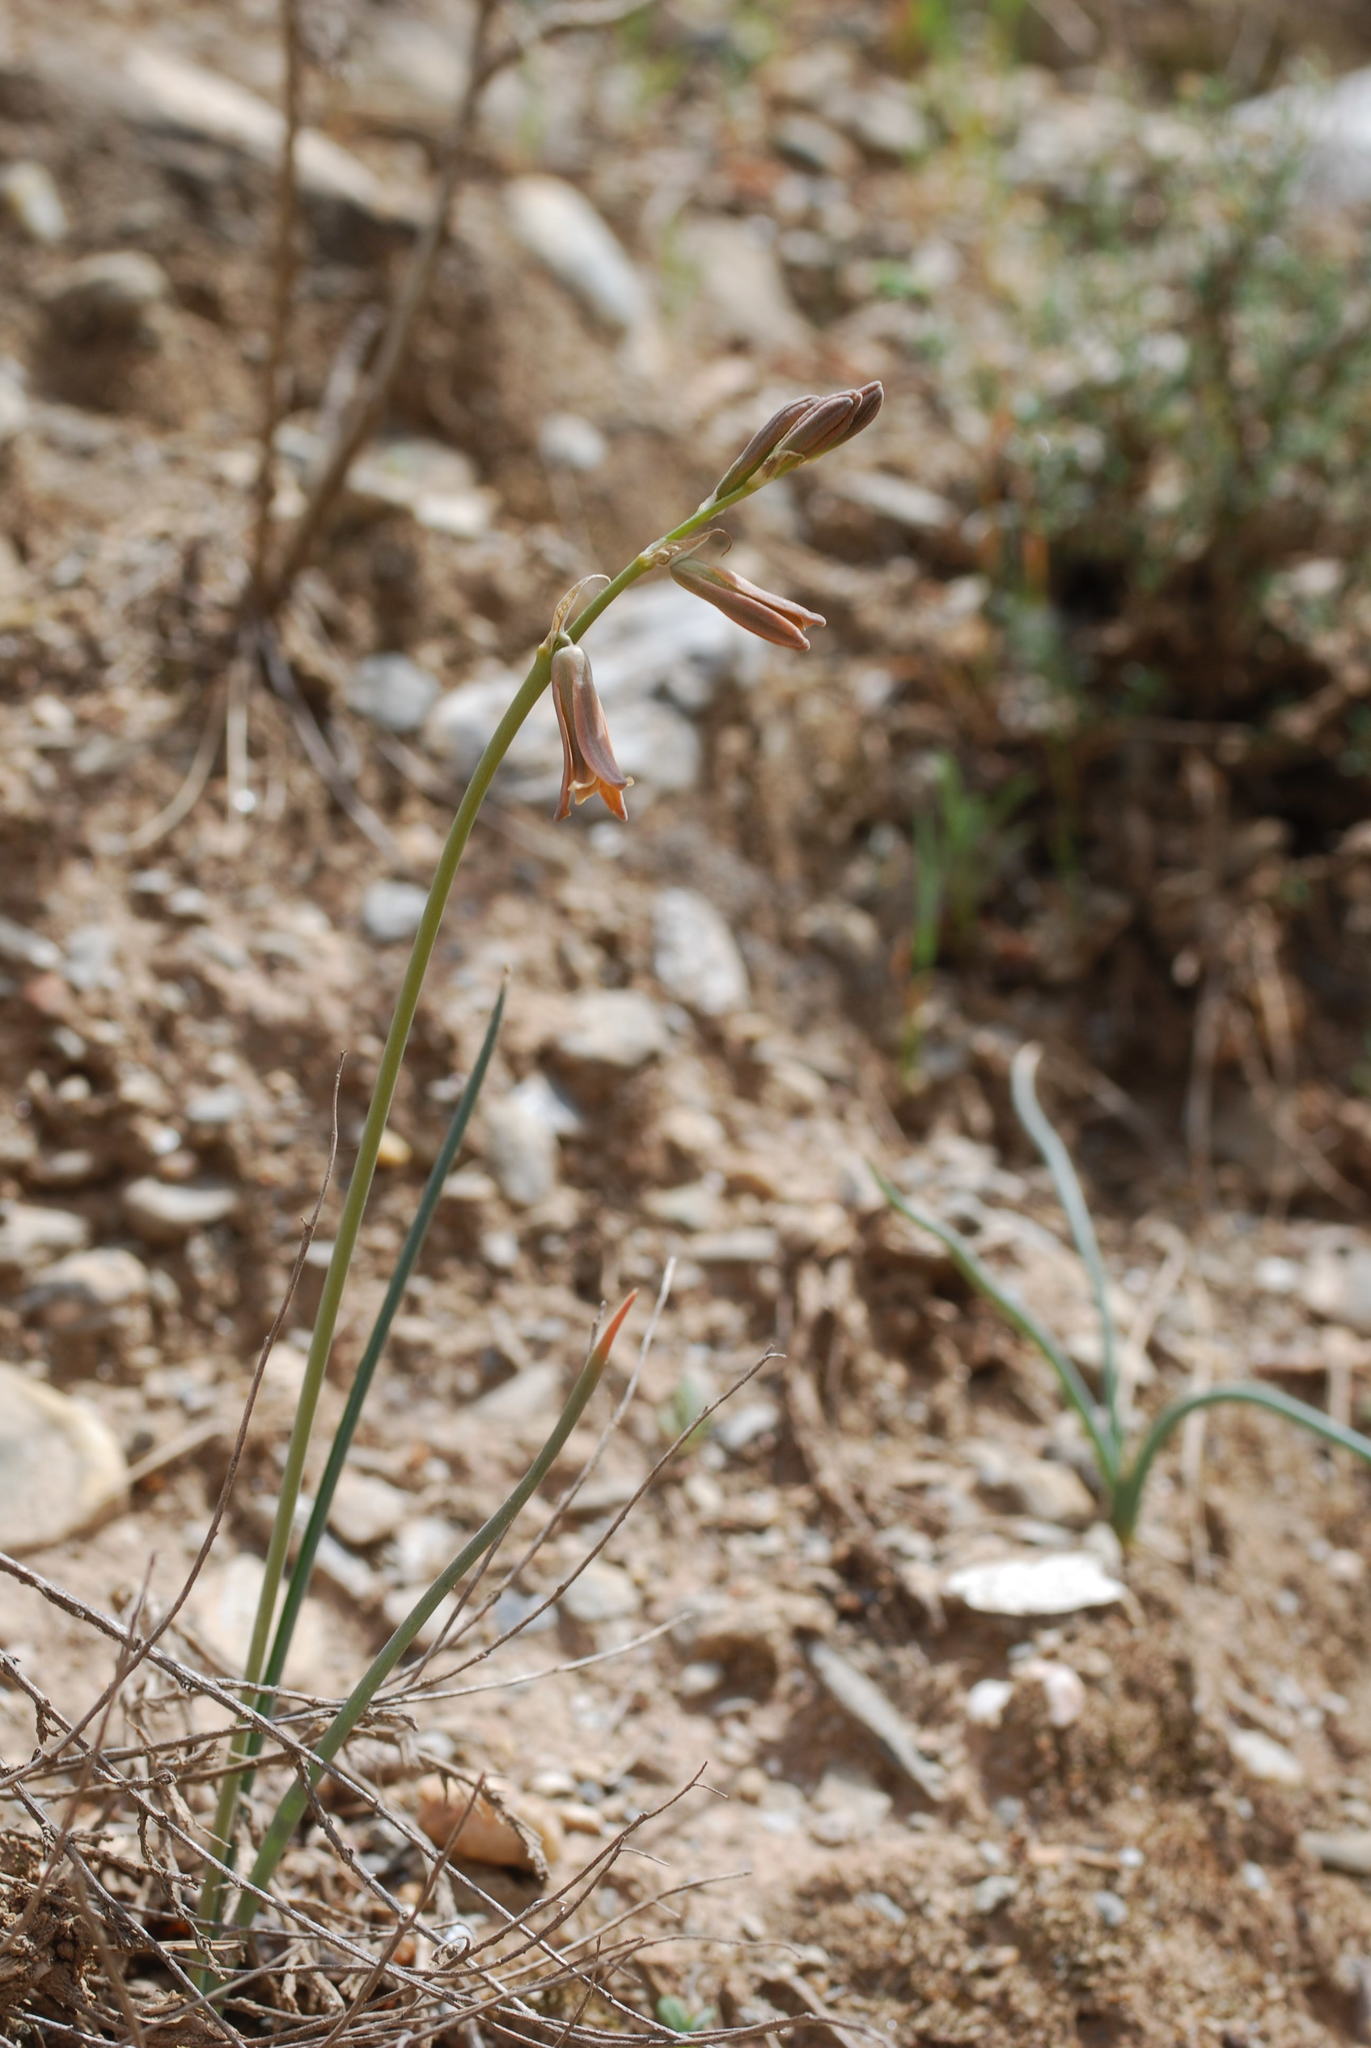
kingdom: Plantae
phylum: Tracheophyta
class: Liliopsida
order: Asparagales
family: Asparagaceae
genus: Dipcadi
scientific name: Dipcadi serotinum
